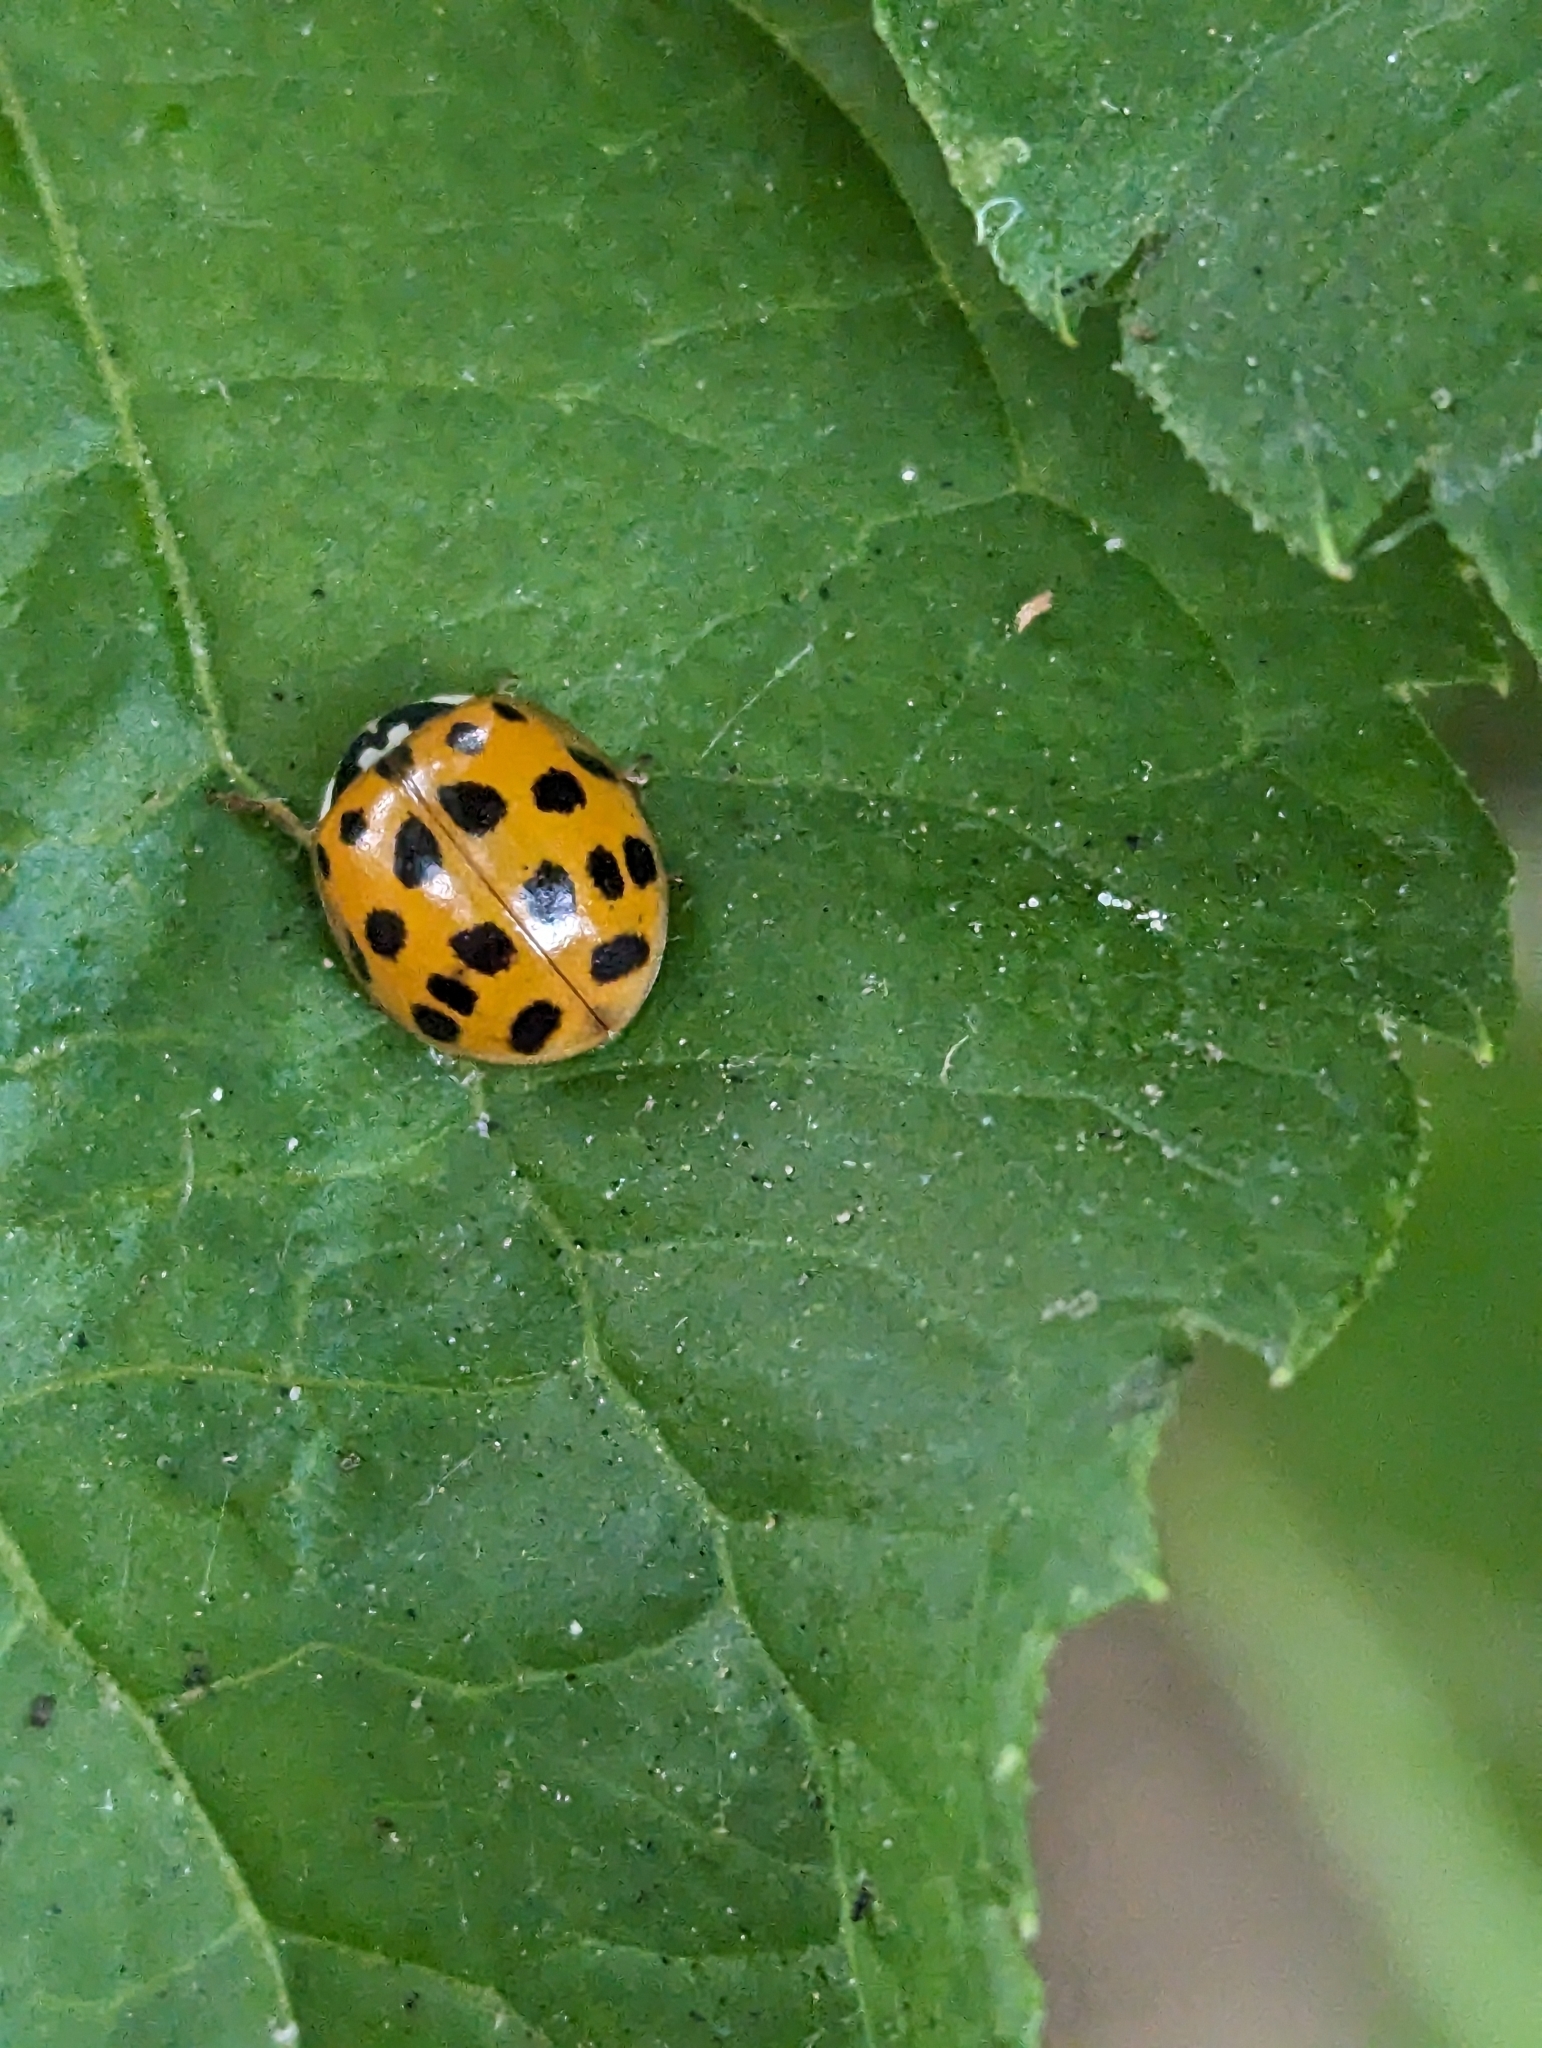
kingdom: Animalia
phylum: Arthropoda
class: Insecta
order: Coleoptera
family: Coccinellidae
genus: Harmonia
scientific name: Harmonia axyridis
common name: Harlequin ladybird
